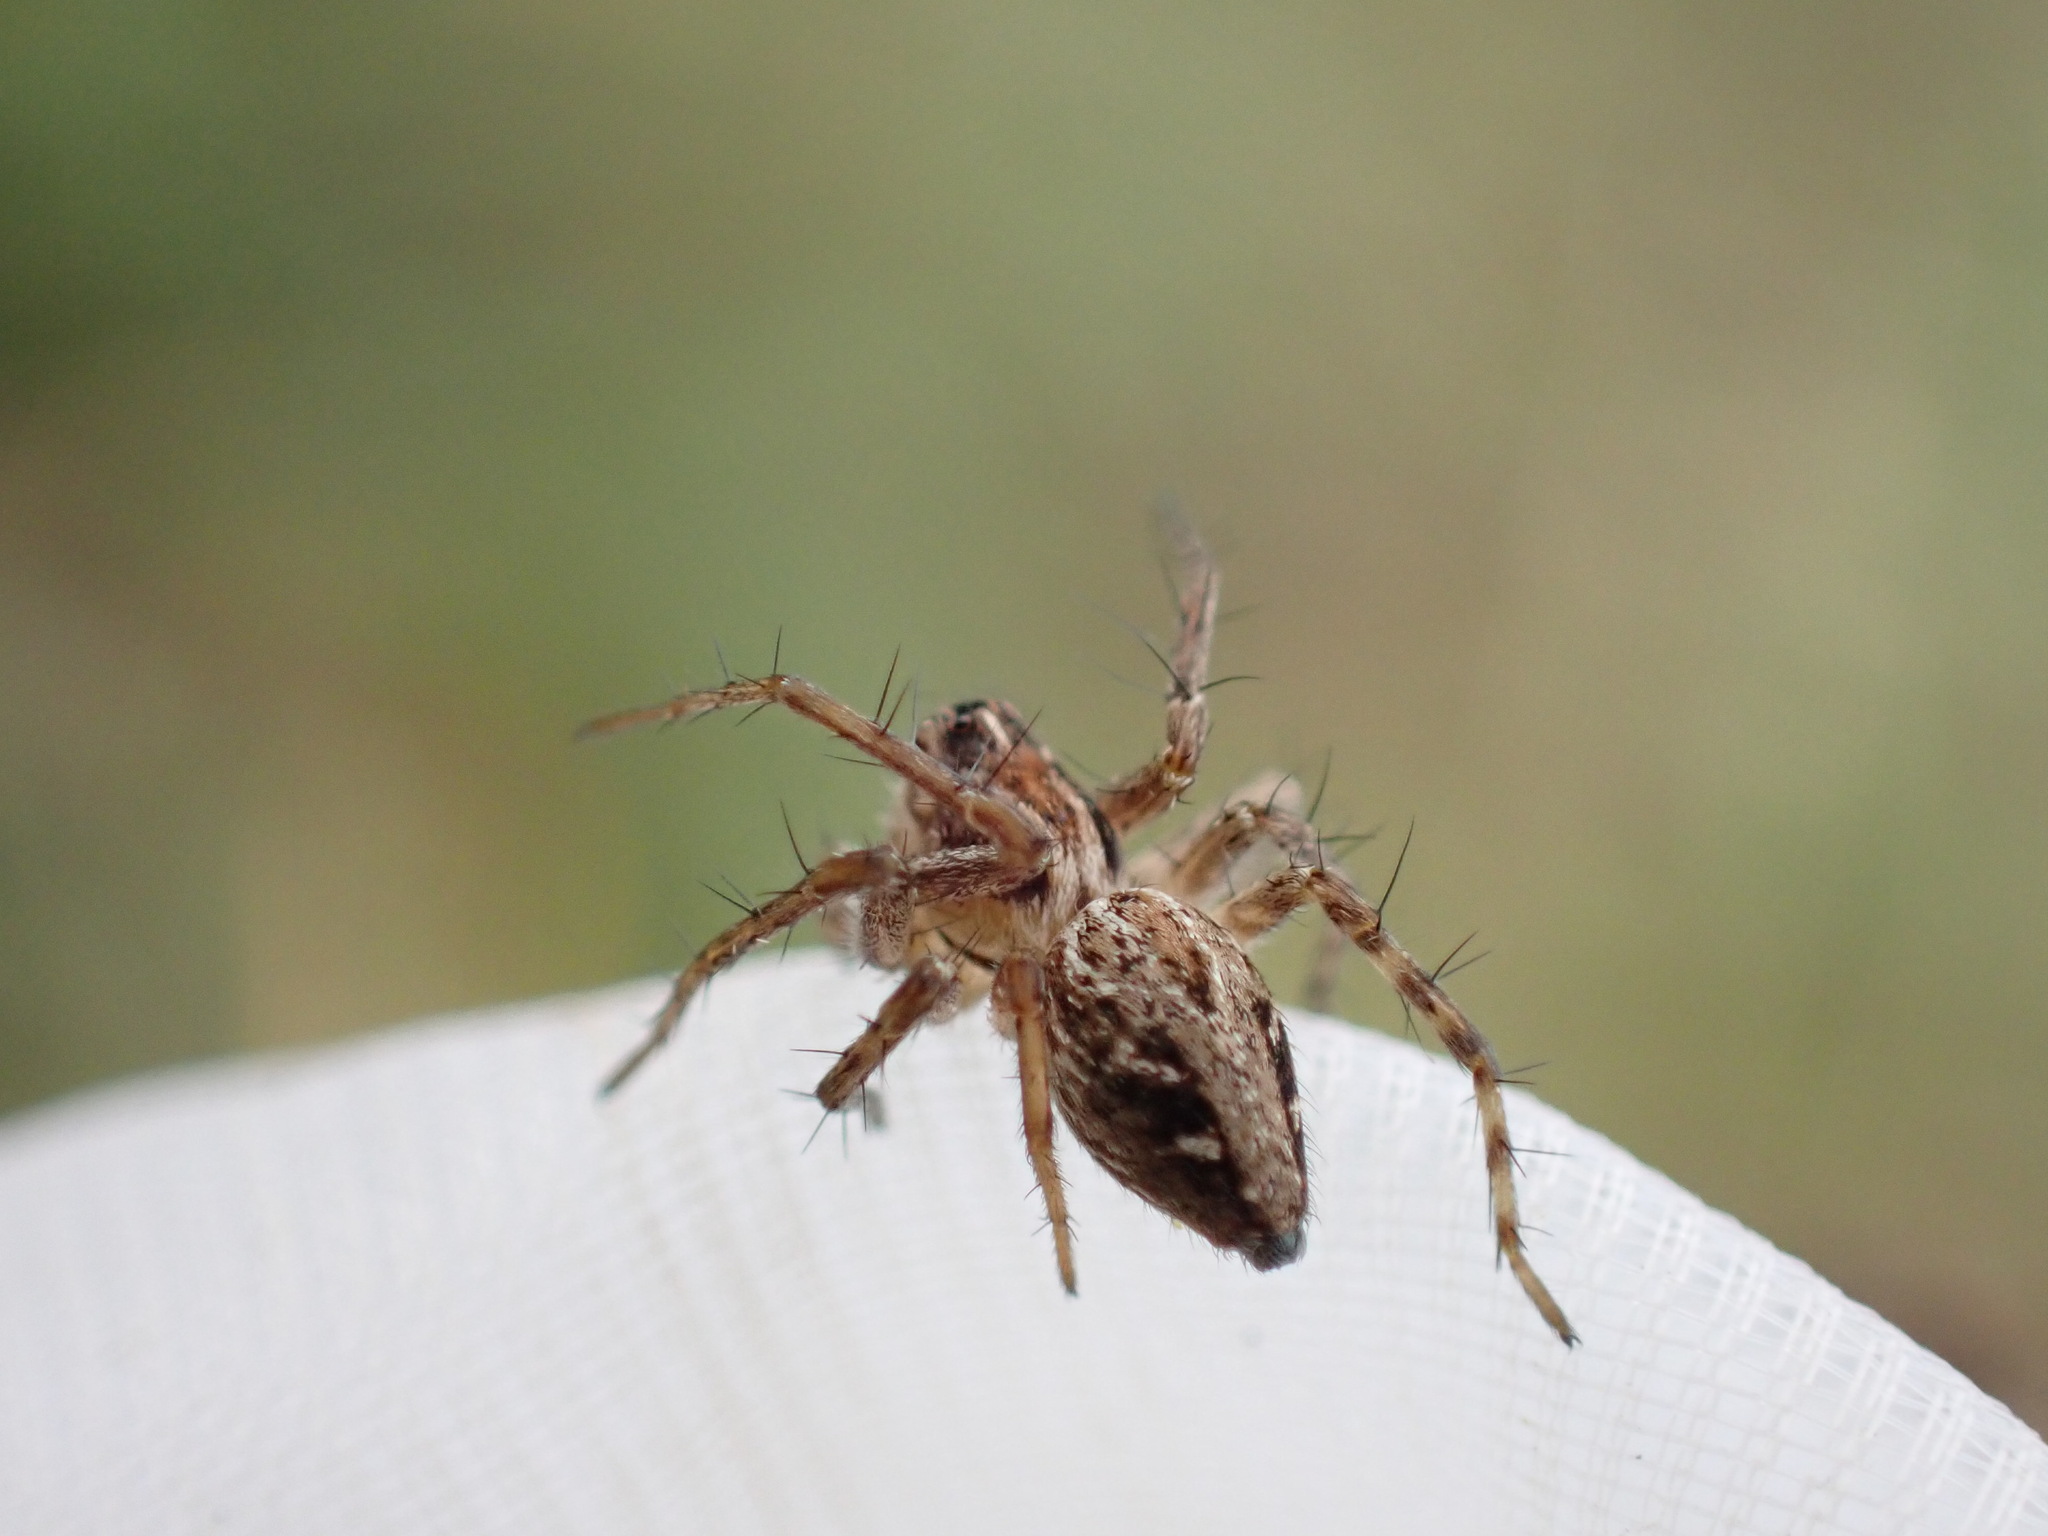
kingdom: Animalia
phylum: Arthropoda
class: Arachnida
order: Araneae
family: Oxyopidae
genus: Oxyopes
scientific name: Oxyopes heterophthalmus
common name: Lynx spider
